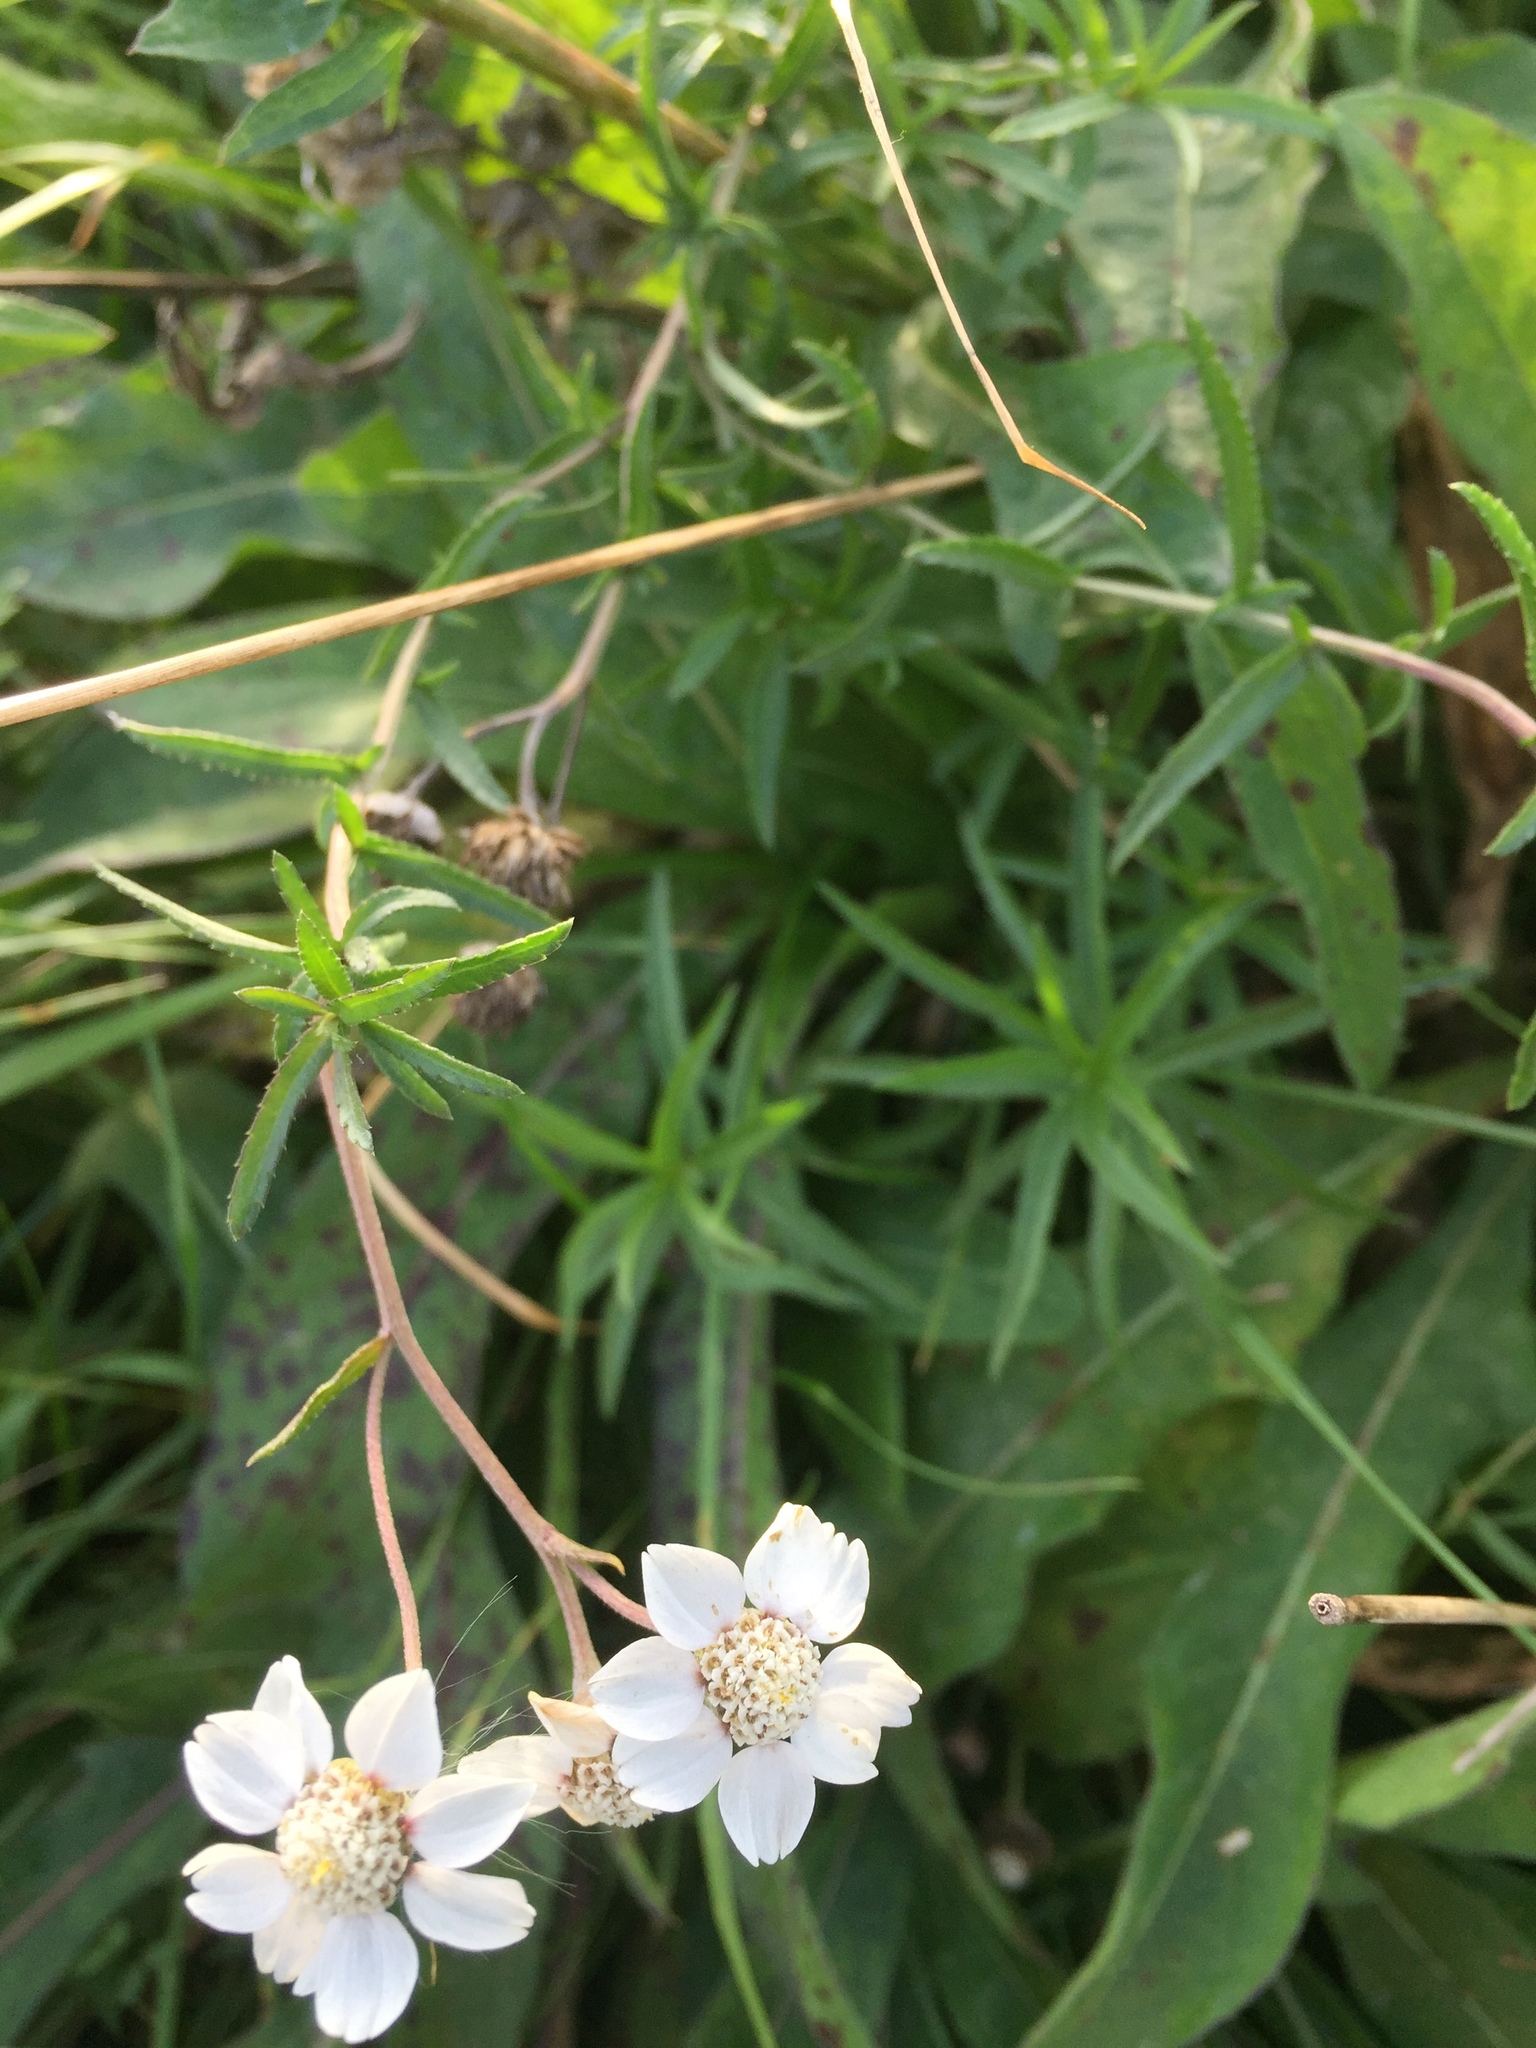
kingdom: Plantae
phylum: Tracheophyta
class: Magnoliopsida
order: Asterales
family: Asteraceae
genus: Achillea
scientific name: Achillea ptarmica
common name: Sneezeweed
